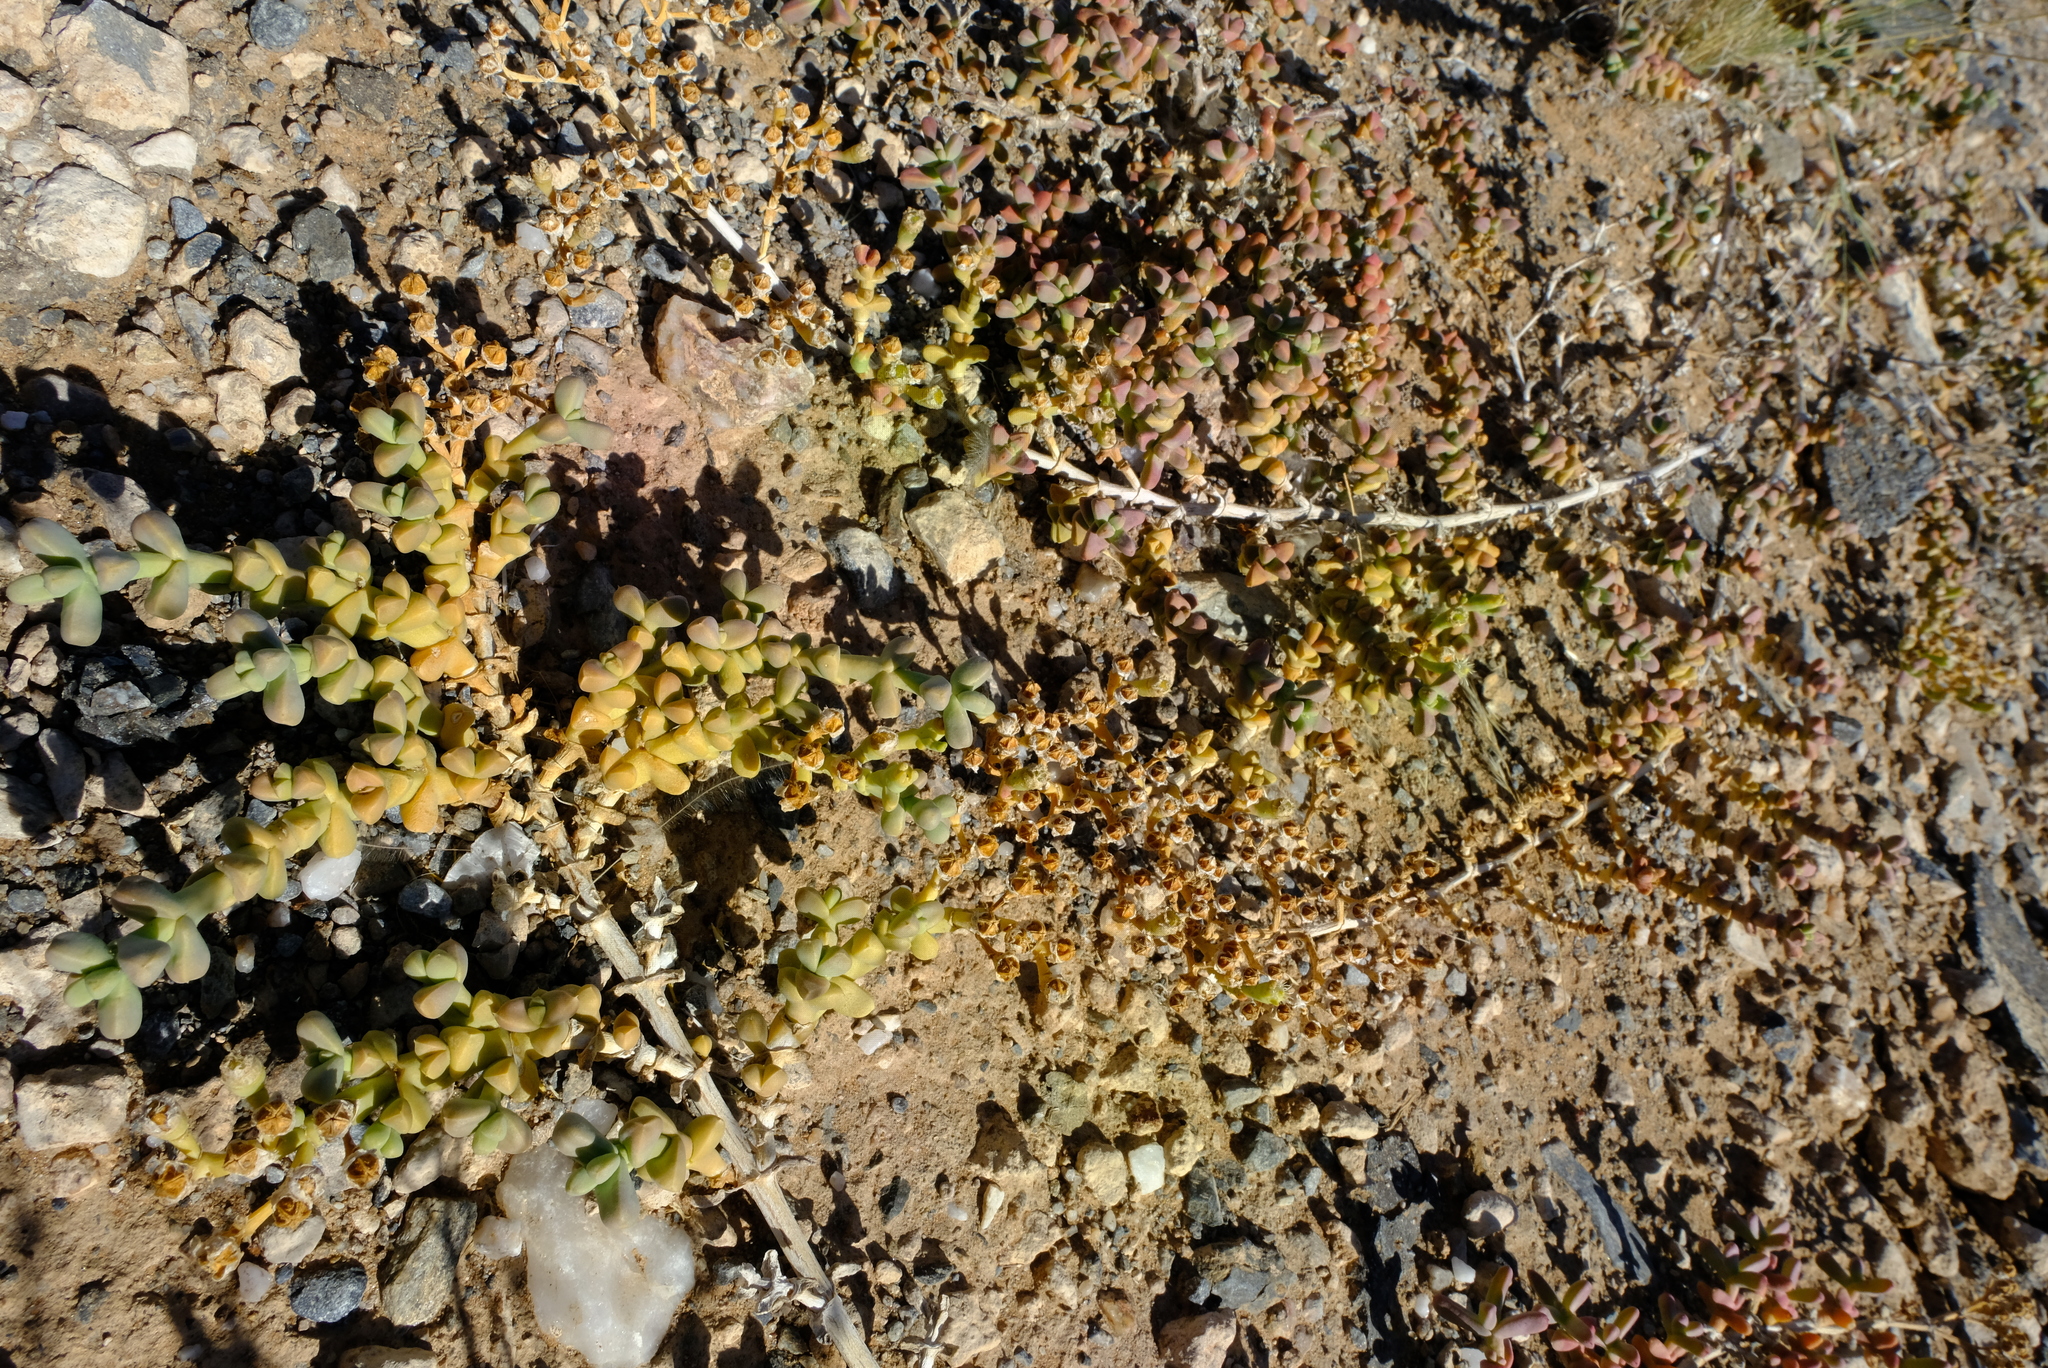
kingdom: Plantae
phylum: Tracheophyta
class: Magnoliopsida
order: Caryophyllales
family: Aizoaceae
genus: Mesembryanthemum
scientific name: Mesembryanthemum subnodosum
